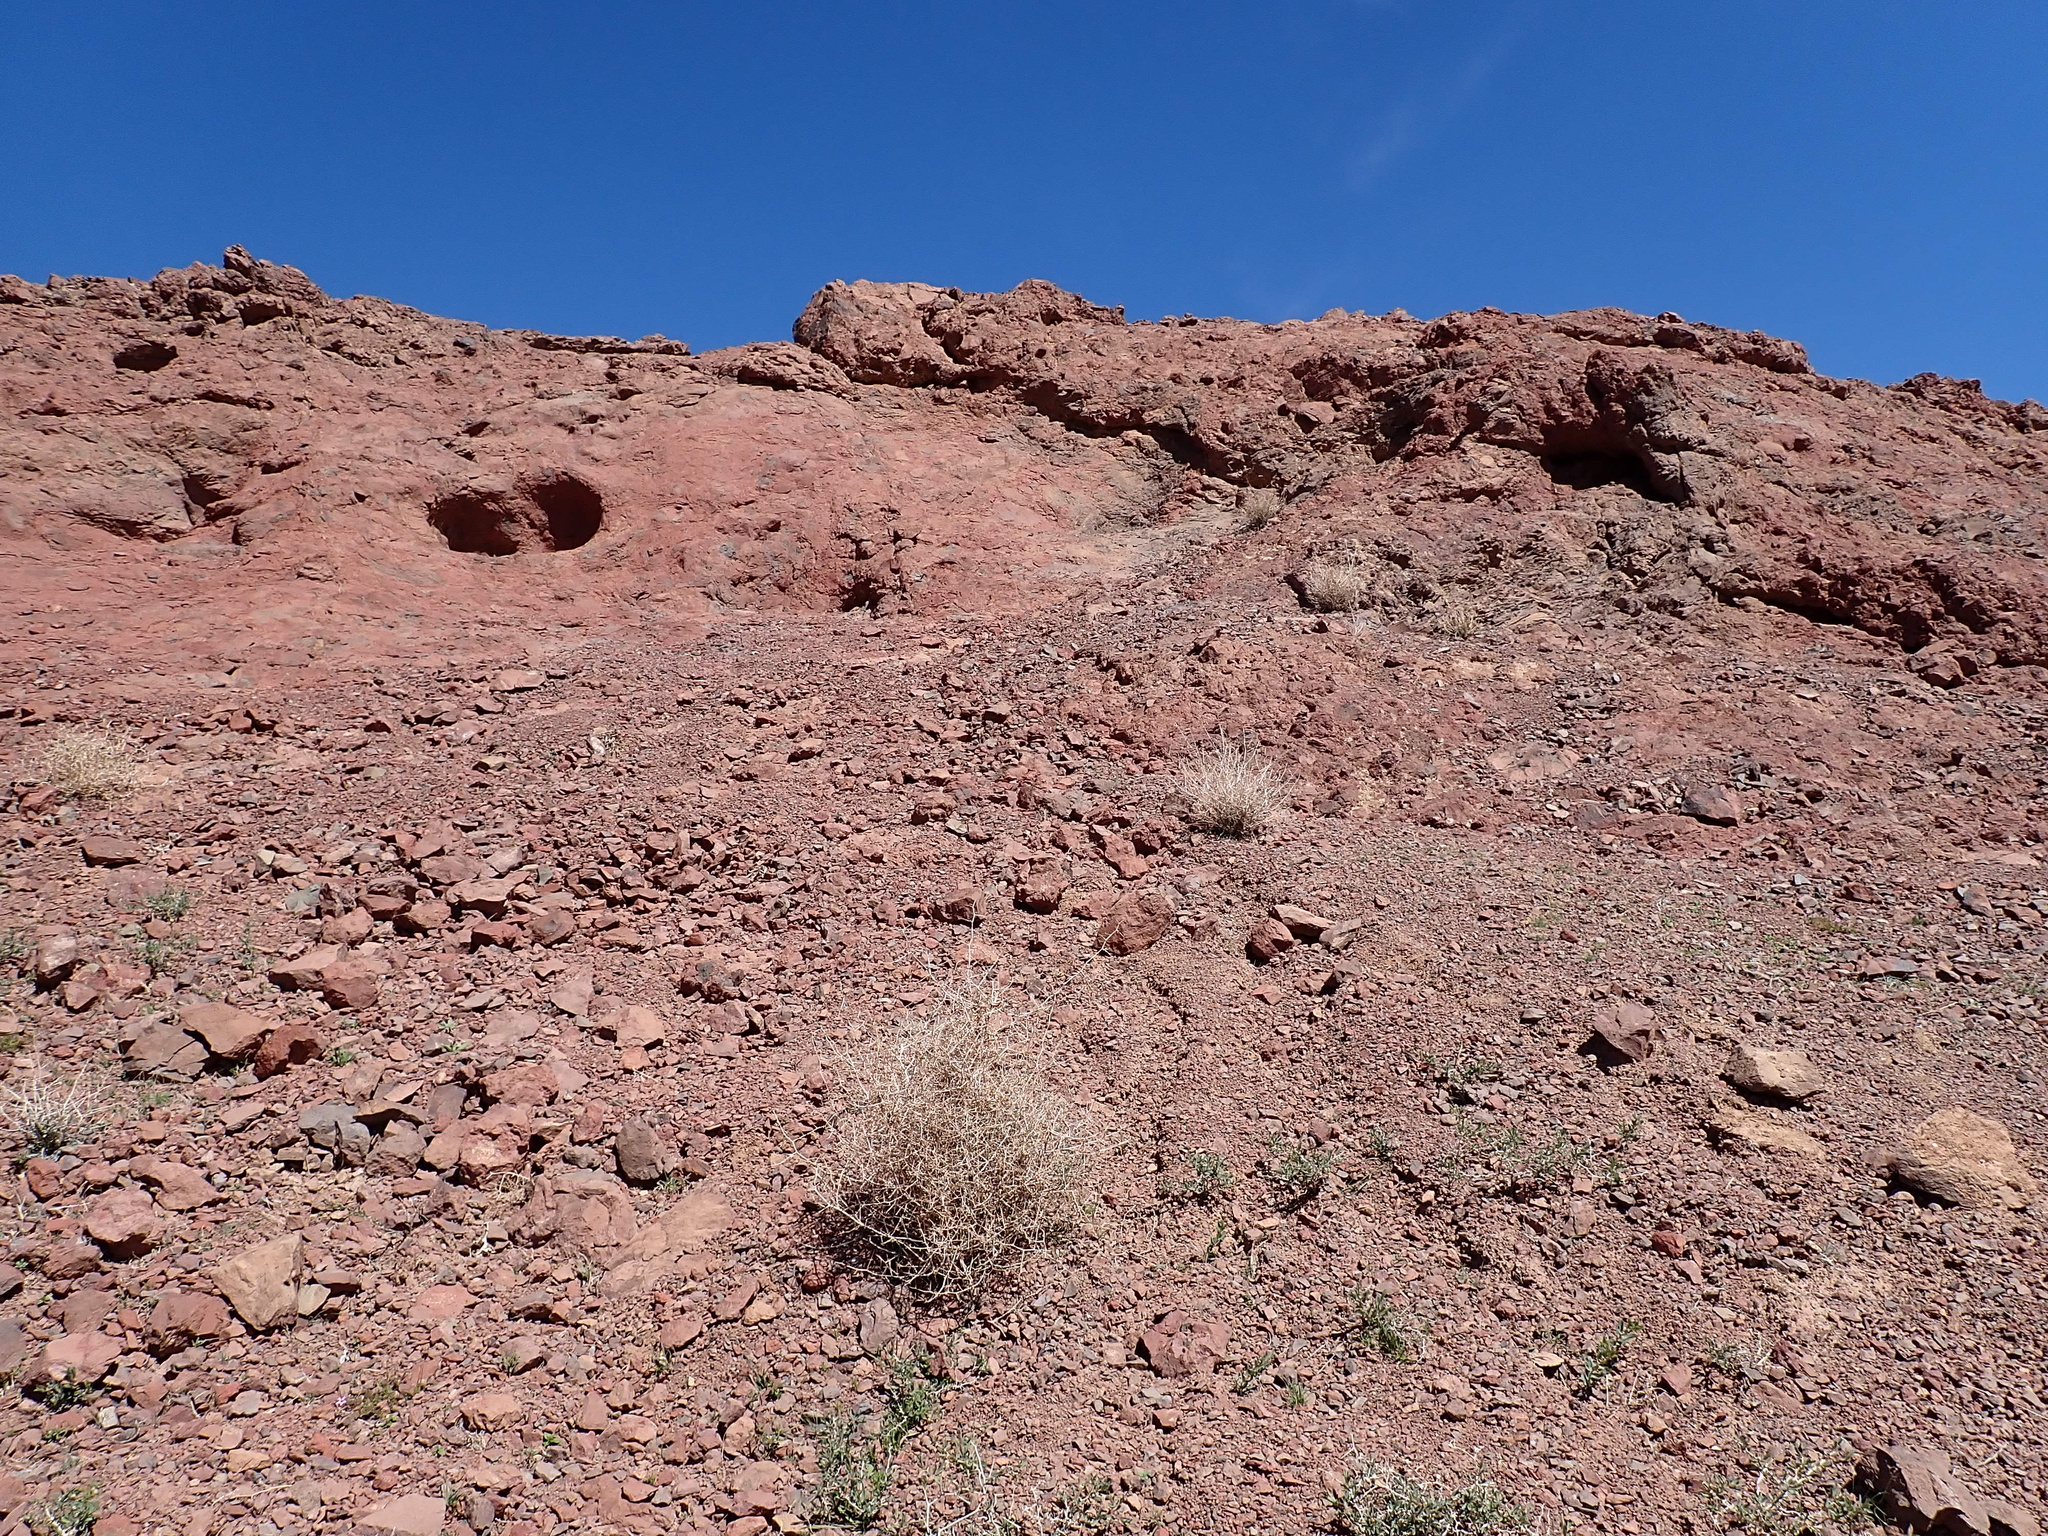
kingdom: Animalia
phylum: Chordata
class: Squamata
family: Typhlopidae
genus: Xerotyphlops
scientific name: Xerotyphlops vermicularis
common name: Eurasian blind snake
